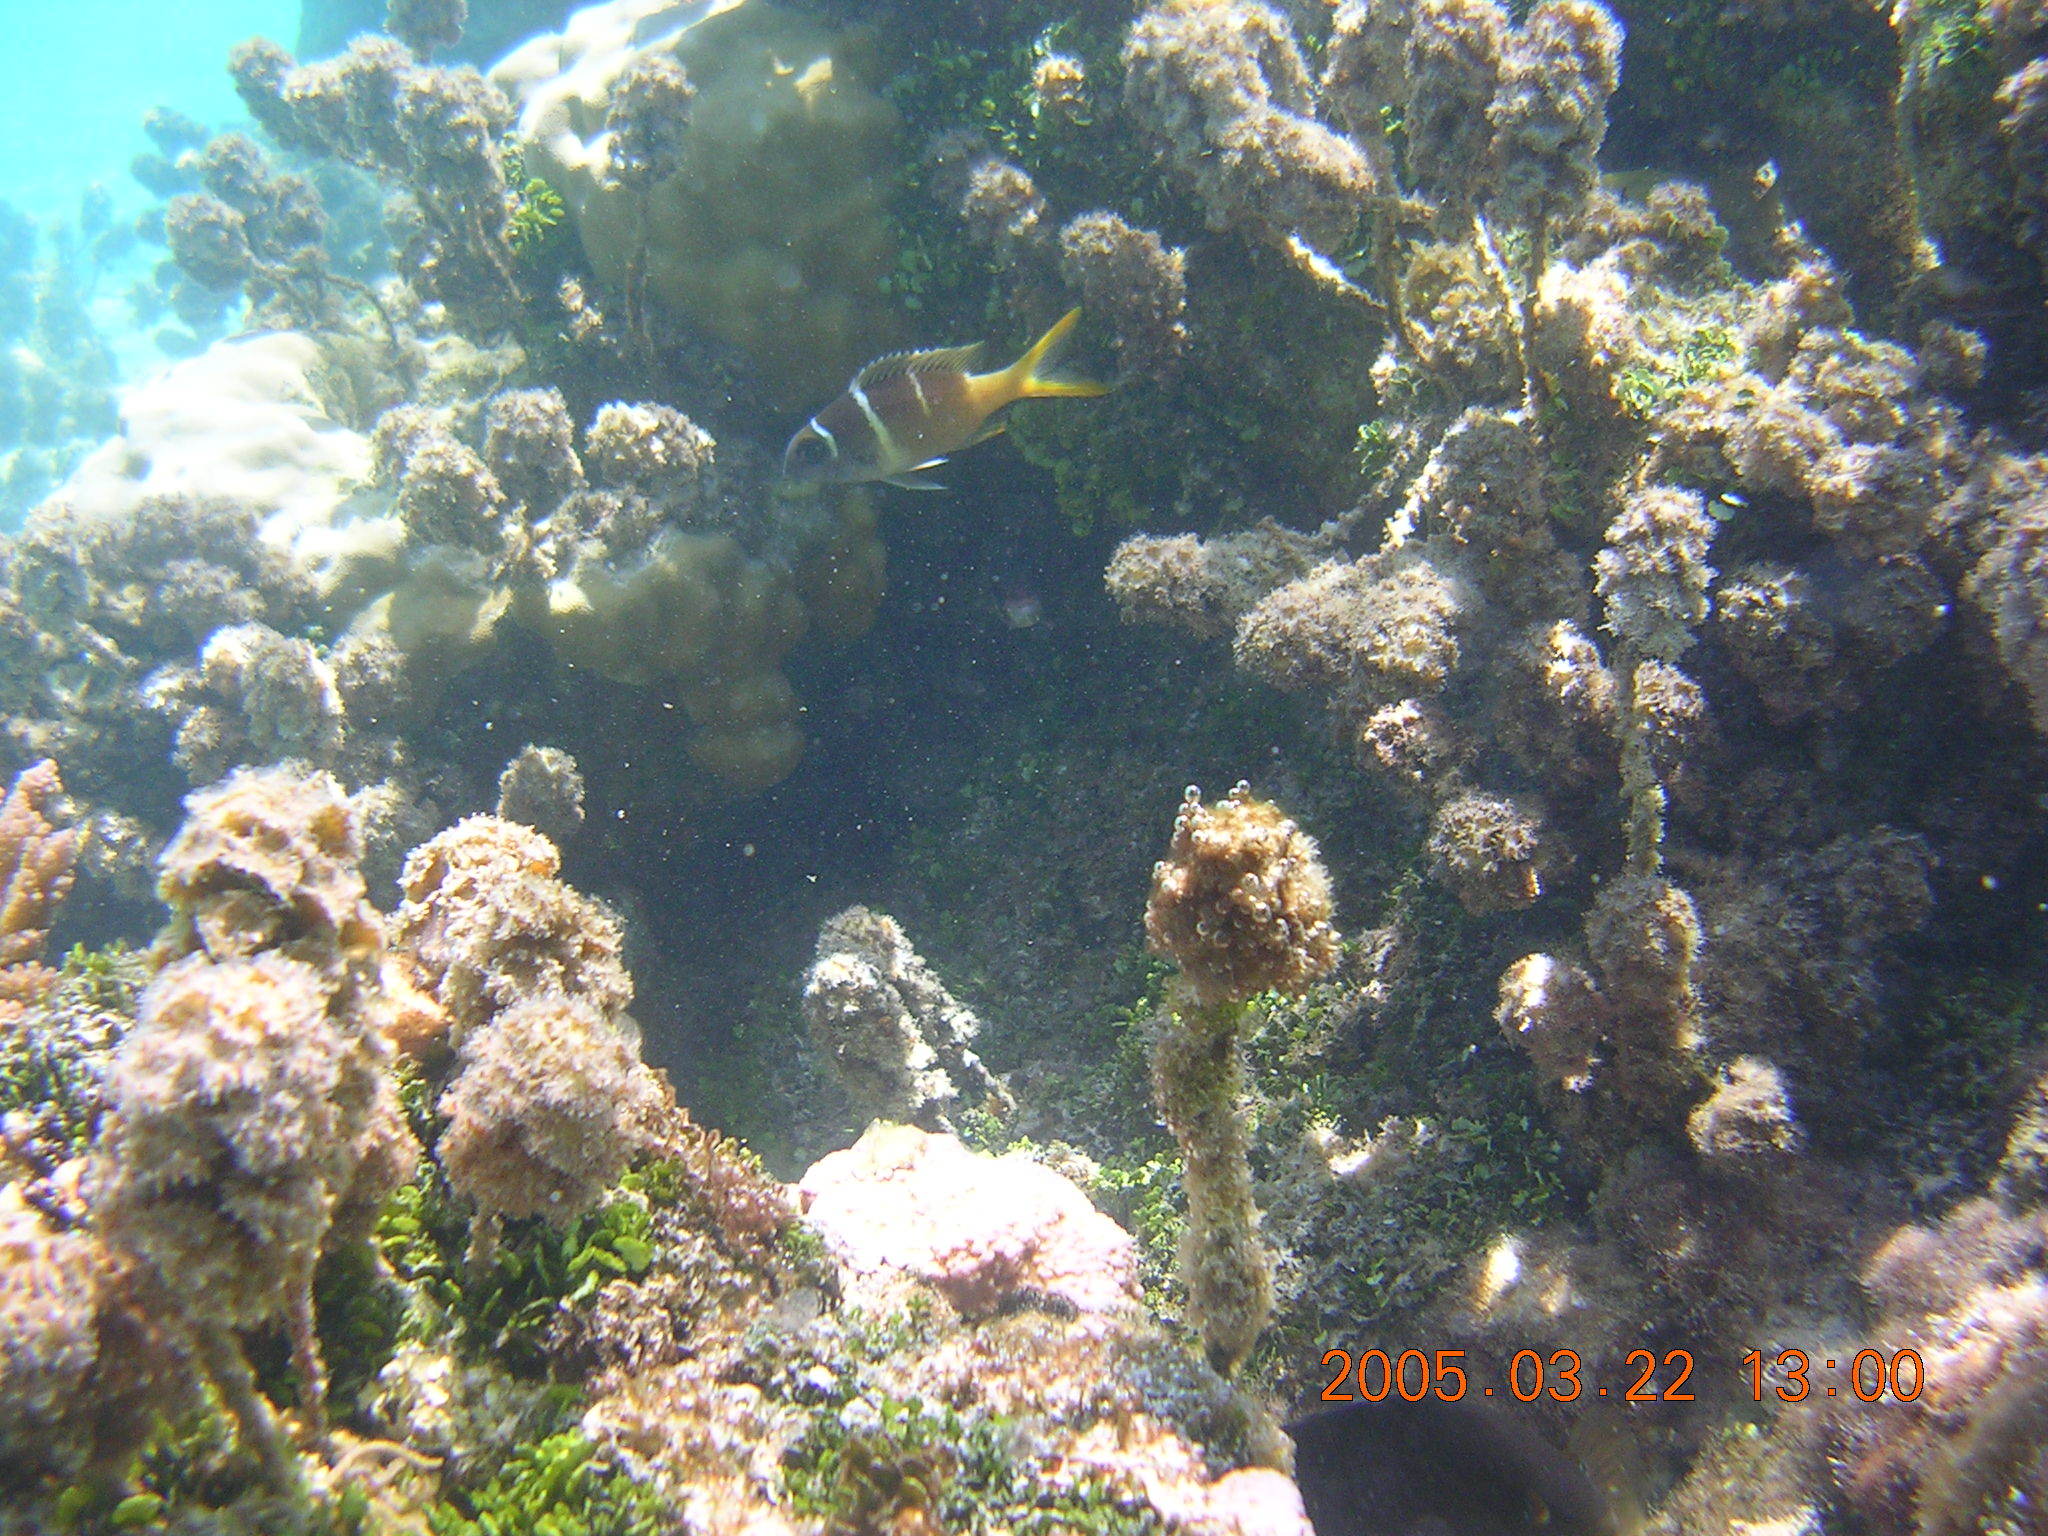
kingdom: Animalia
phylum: Chordata
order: Perciformes
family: Lethrinidae
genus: Monotaxis
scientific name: Monotaxis heterodon
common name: Redfin emperor
